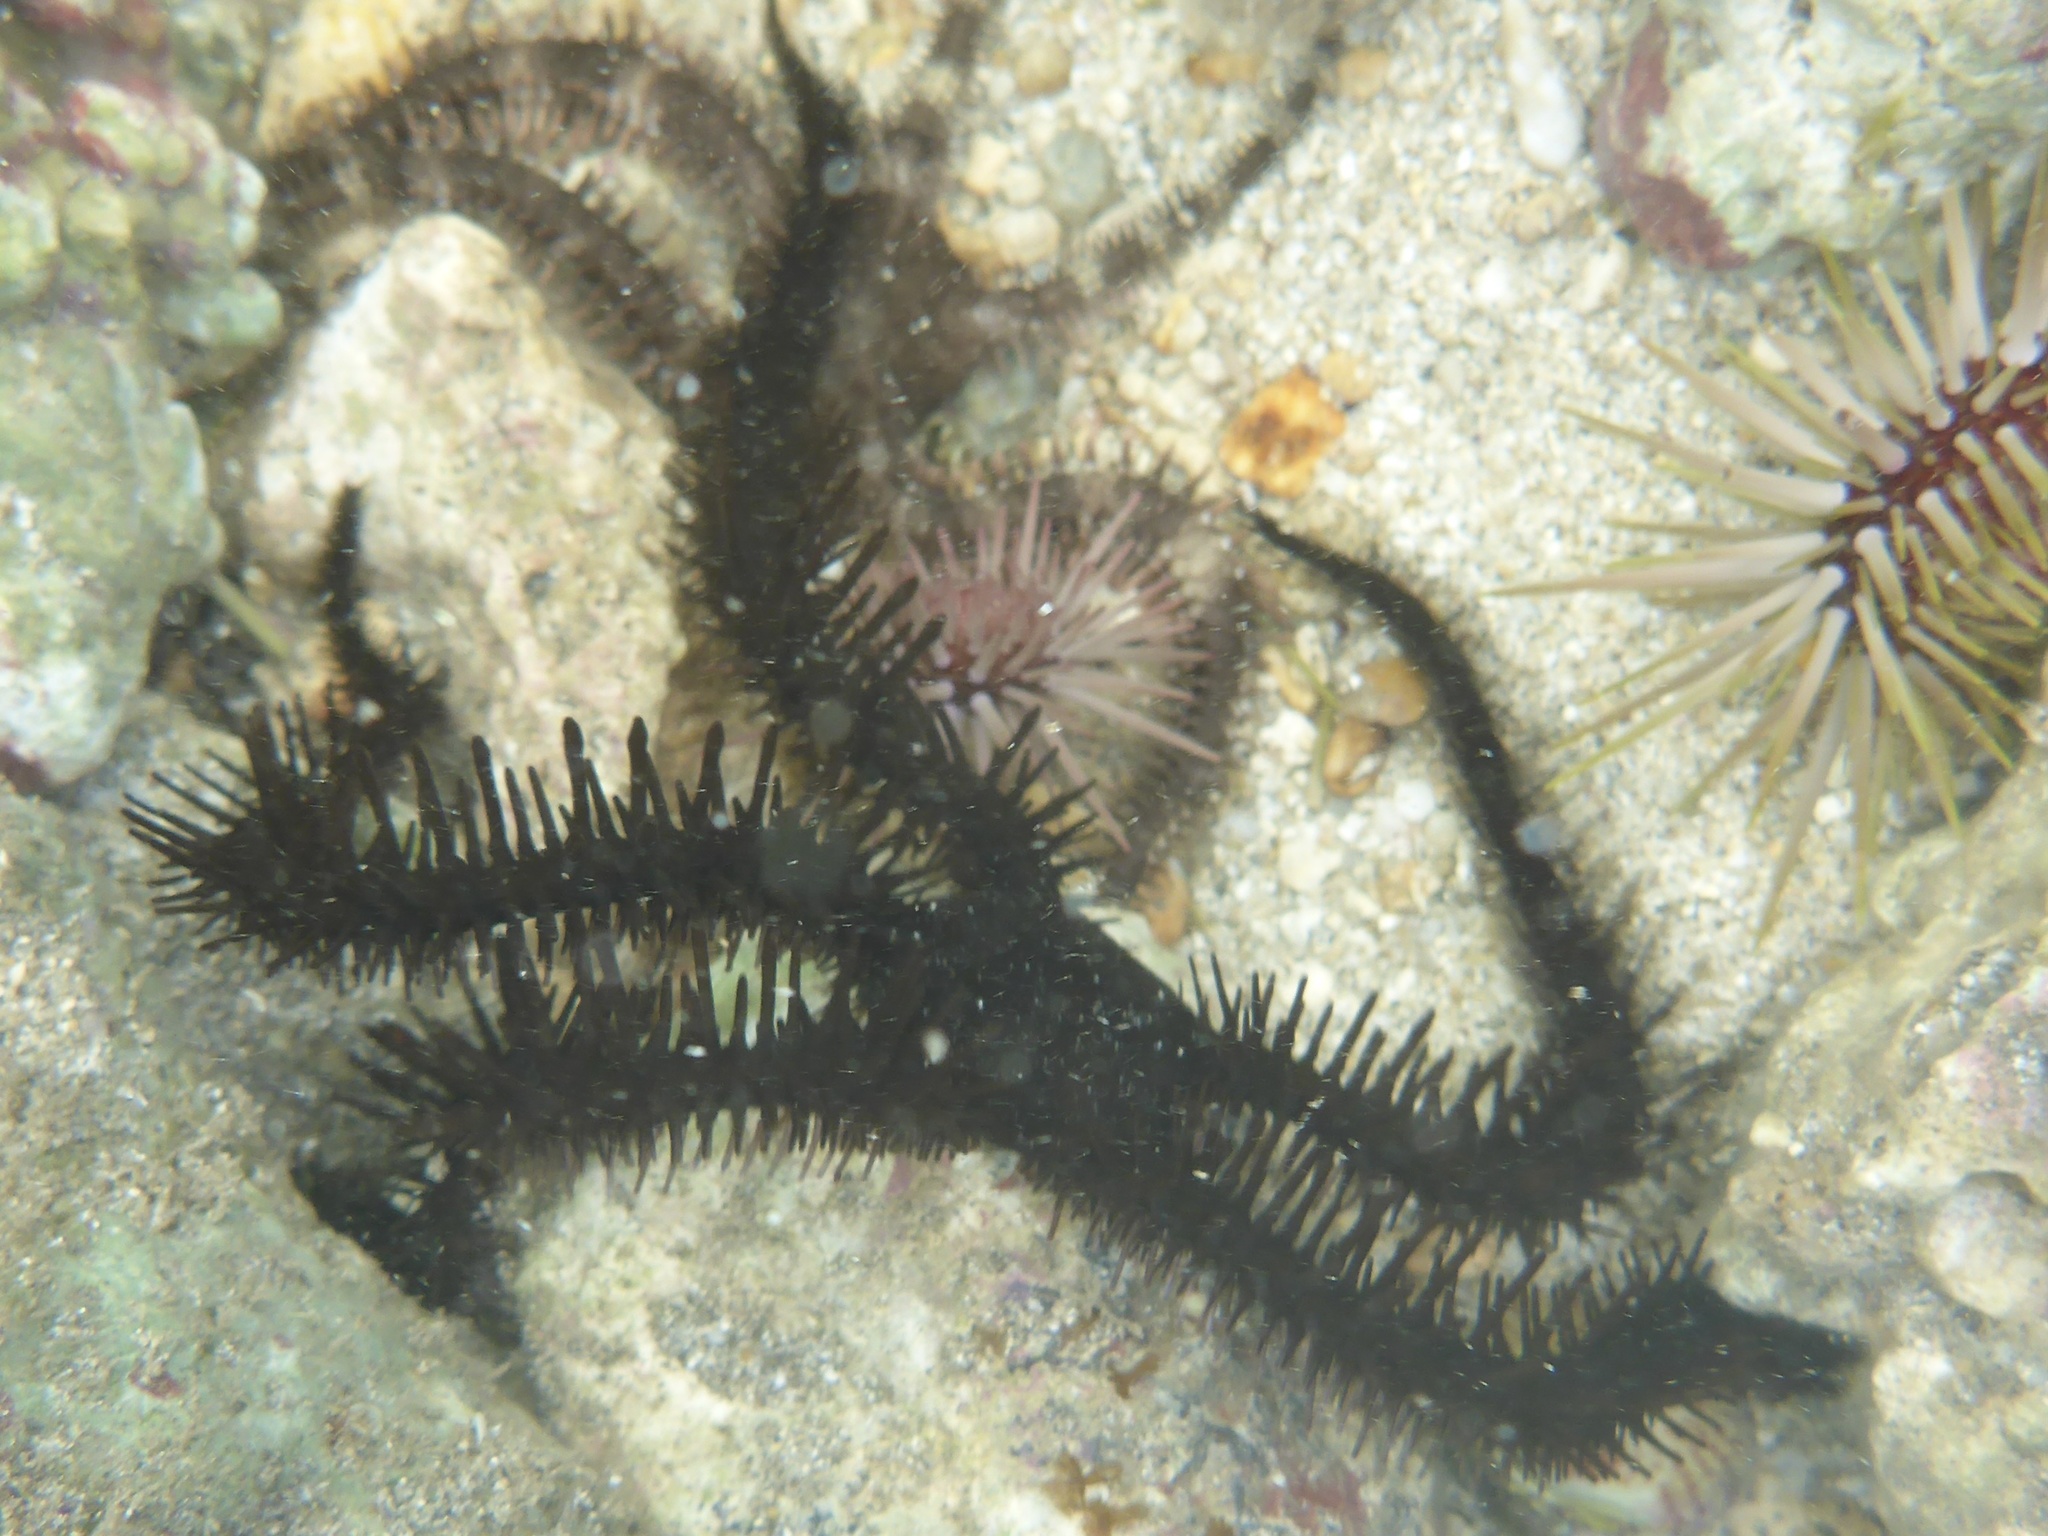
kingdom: Animalia
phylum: Echinodermata
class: Ophiuroidea
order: Ophiacanthida
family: Ophiocomidae
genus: Ophiocoma
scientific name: Ophiocoma erinaceus
